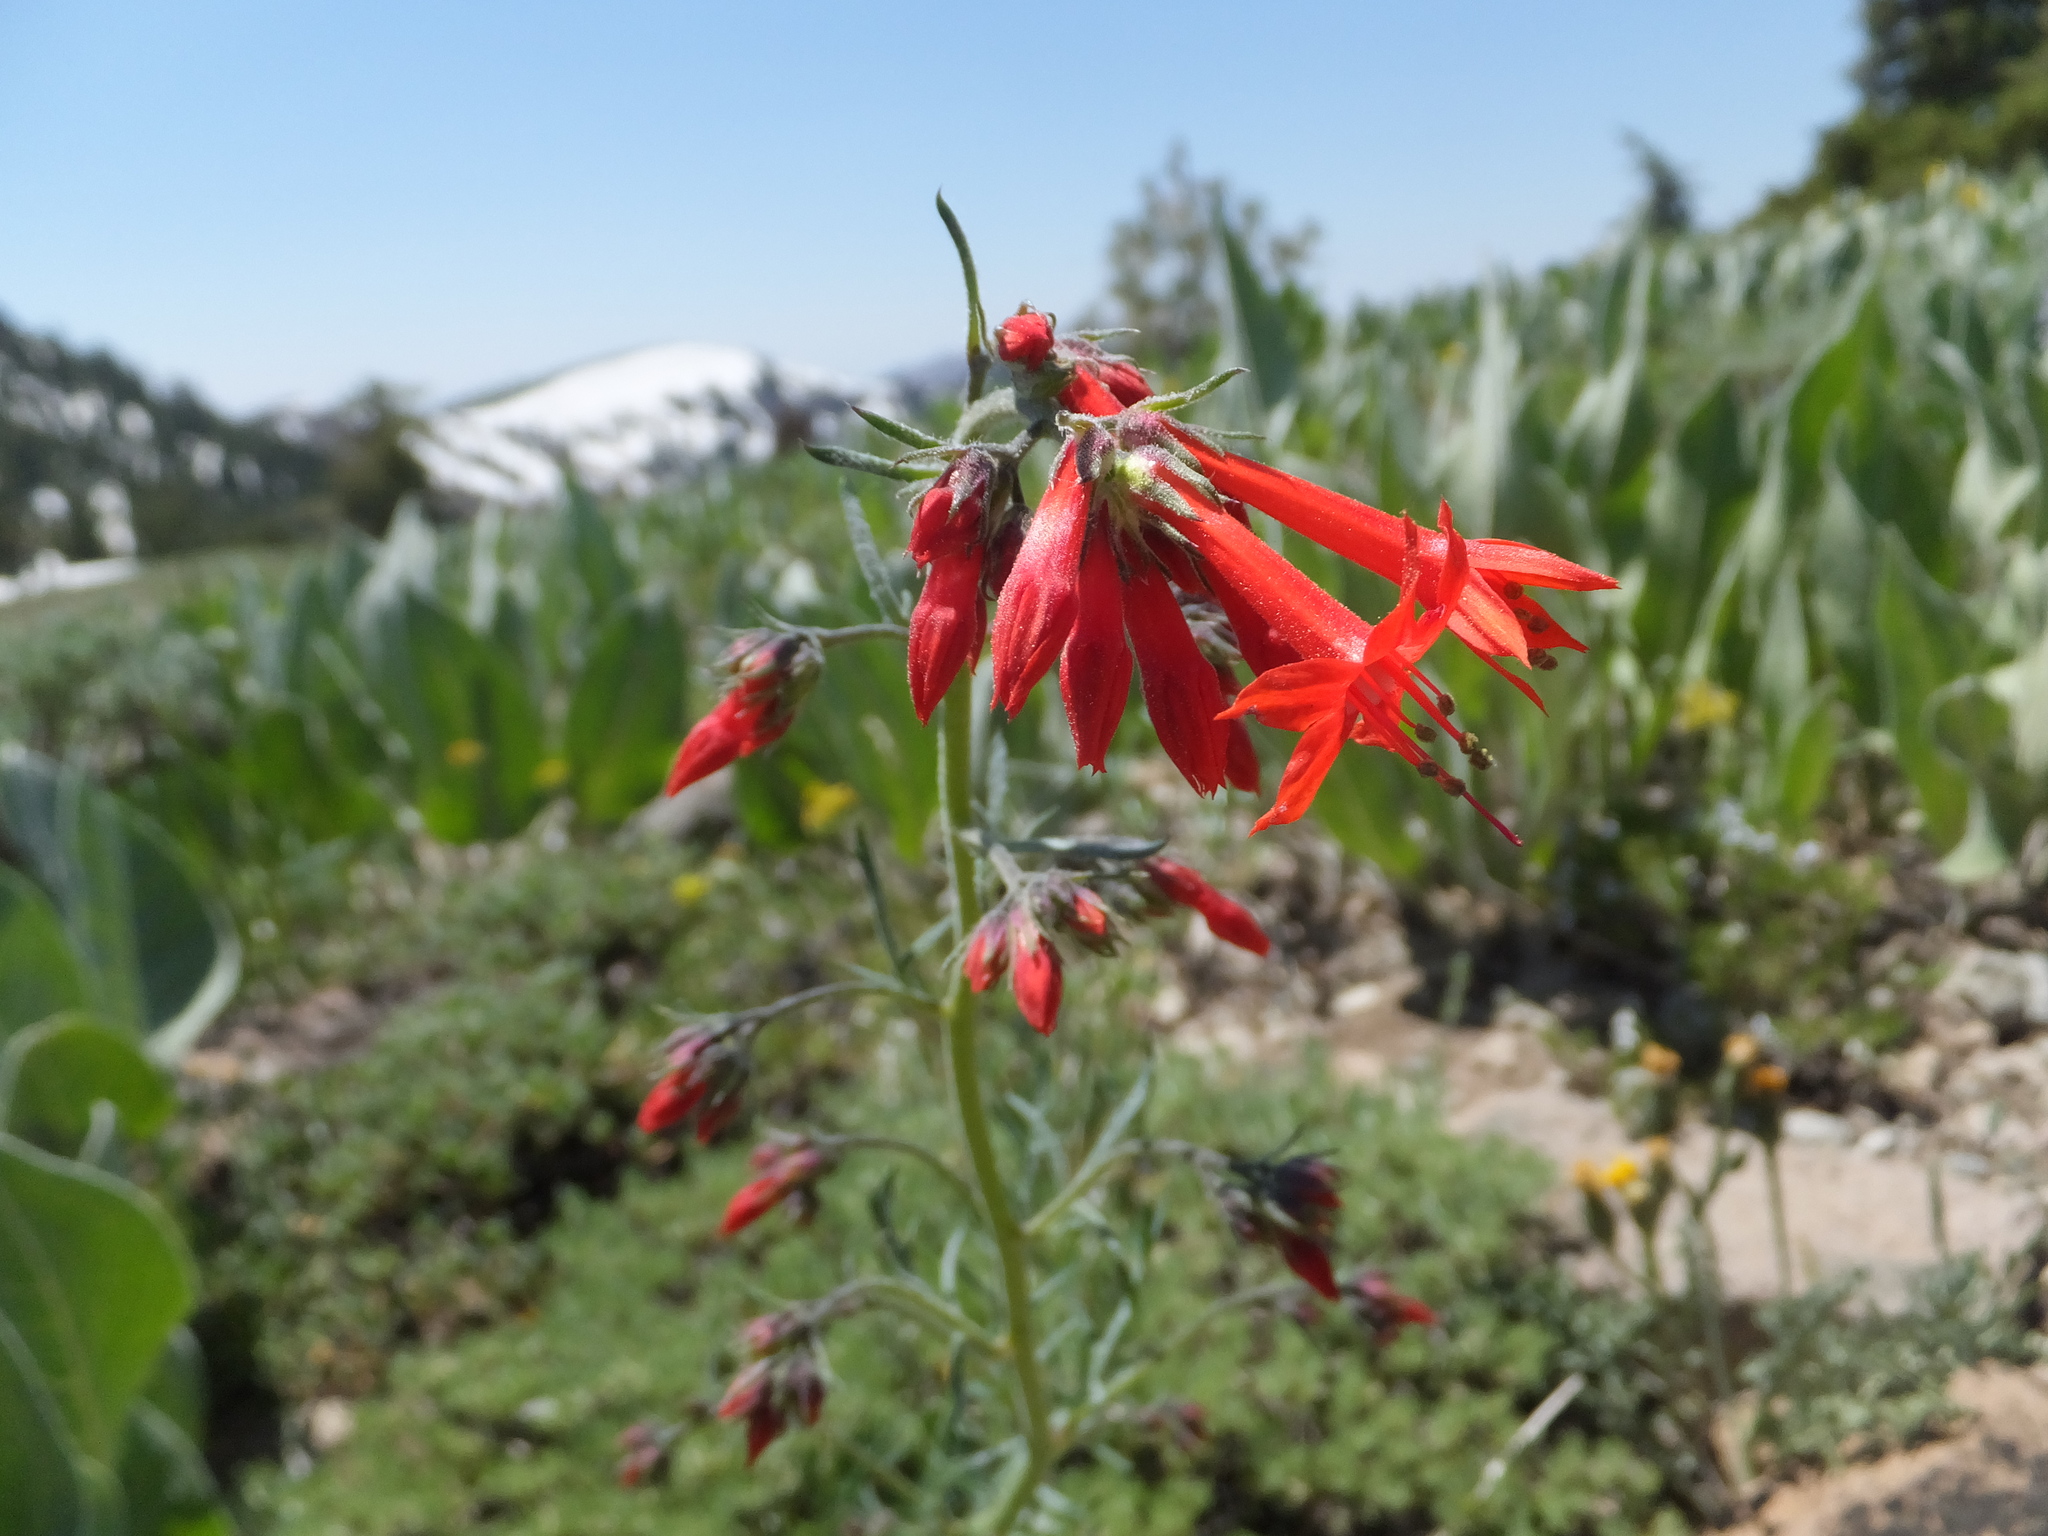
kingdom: Plantae
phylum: Tracheophyta
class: Magnoliopsida
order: Ericales
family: Polemoniaceae
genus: Ipomopsis
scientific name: Ipomopsis aggregata
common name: Scarlet gilia
